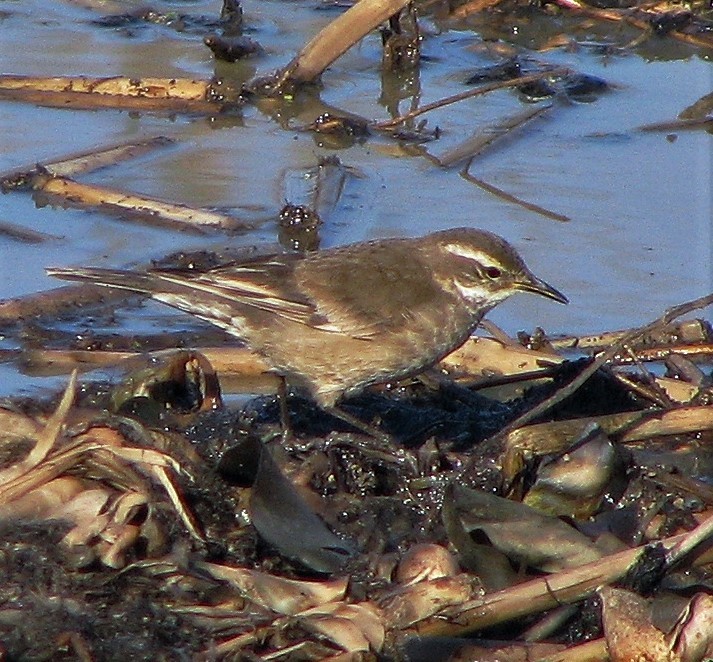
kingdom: Animalia
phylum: Chordata
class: Aves
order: Passeriformes
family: Furnariidae
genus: Cinclodes
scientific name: Cinclodes fuscus
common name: Buff-winged cinclodes
